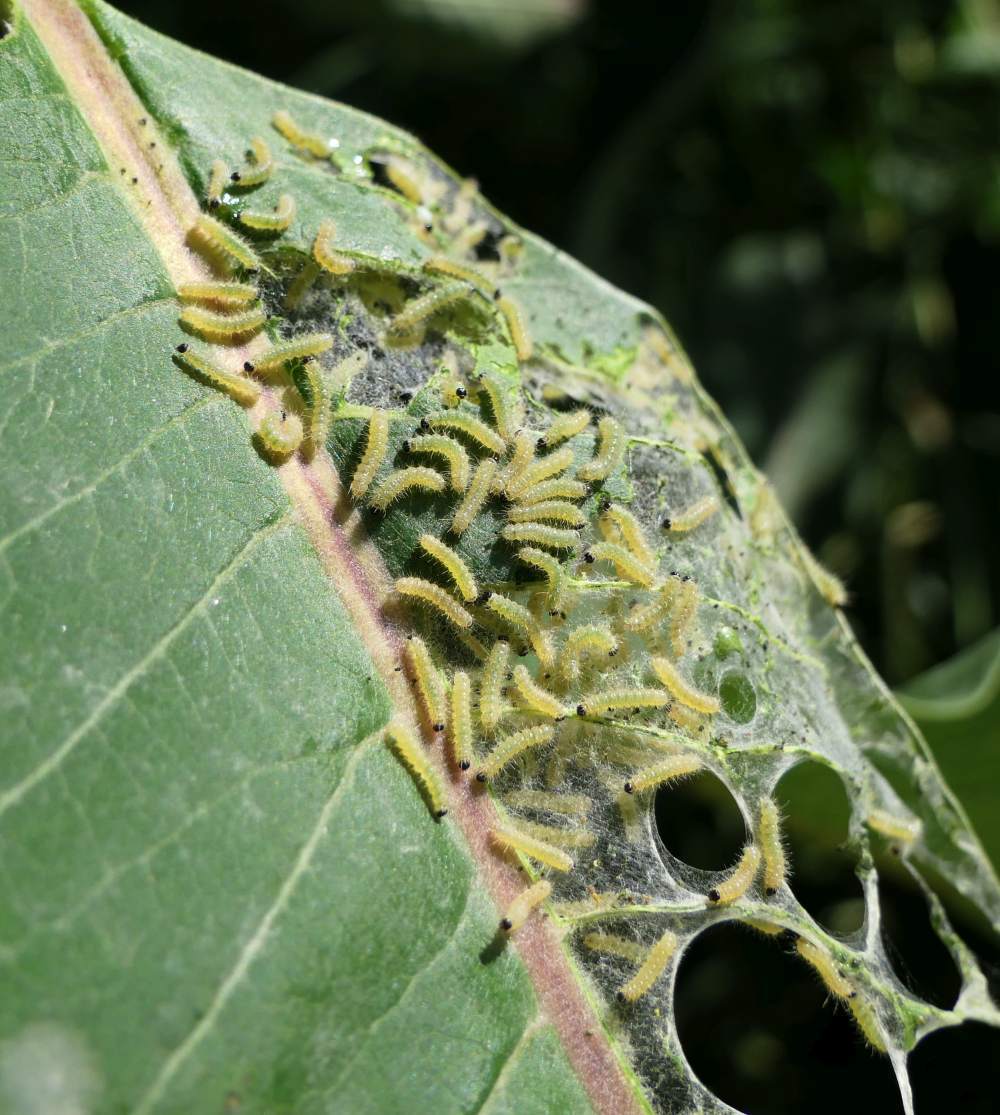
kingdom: Animalia
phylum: Arthropoda
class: Insecta
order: Lepidoptera
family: Erebidae
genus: Euchaetes
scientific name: Euchaetes egle
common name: Milkweed tussock moth
